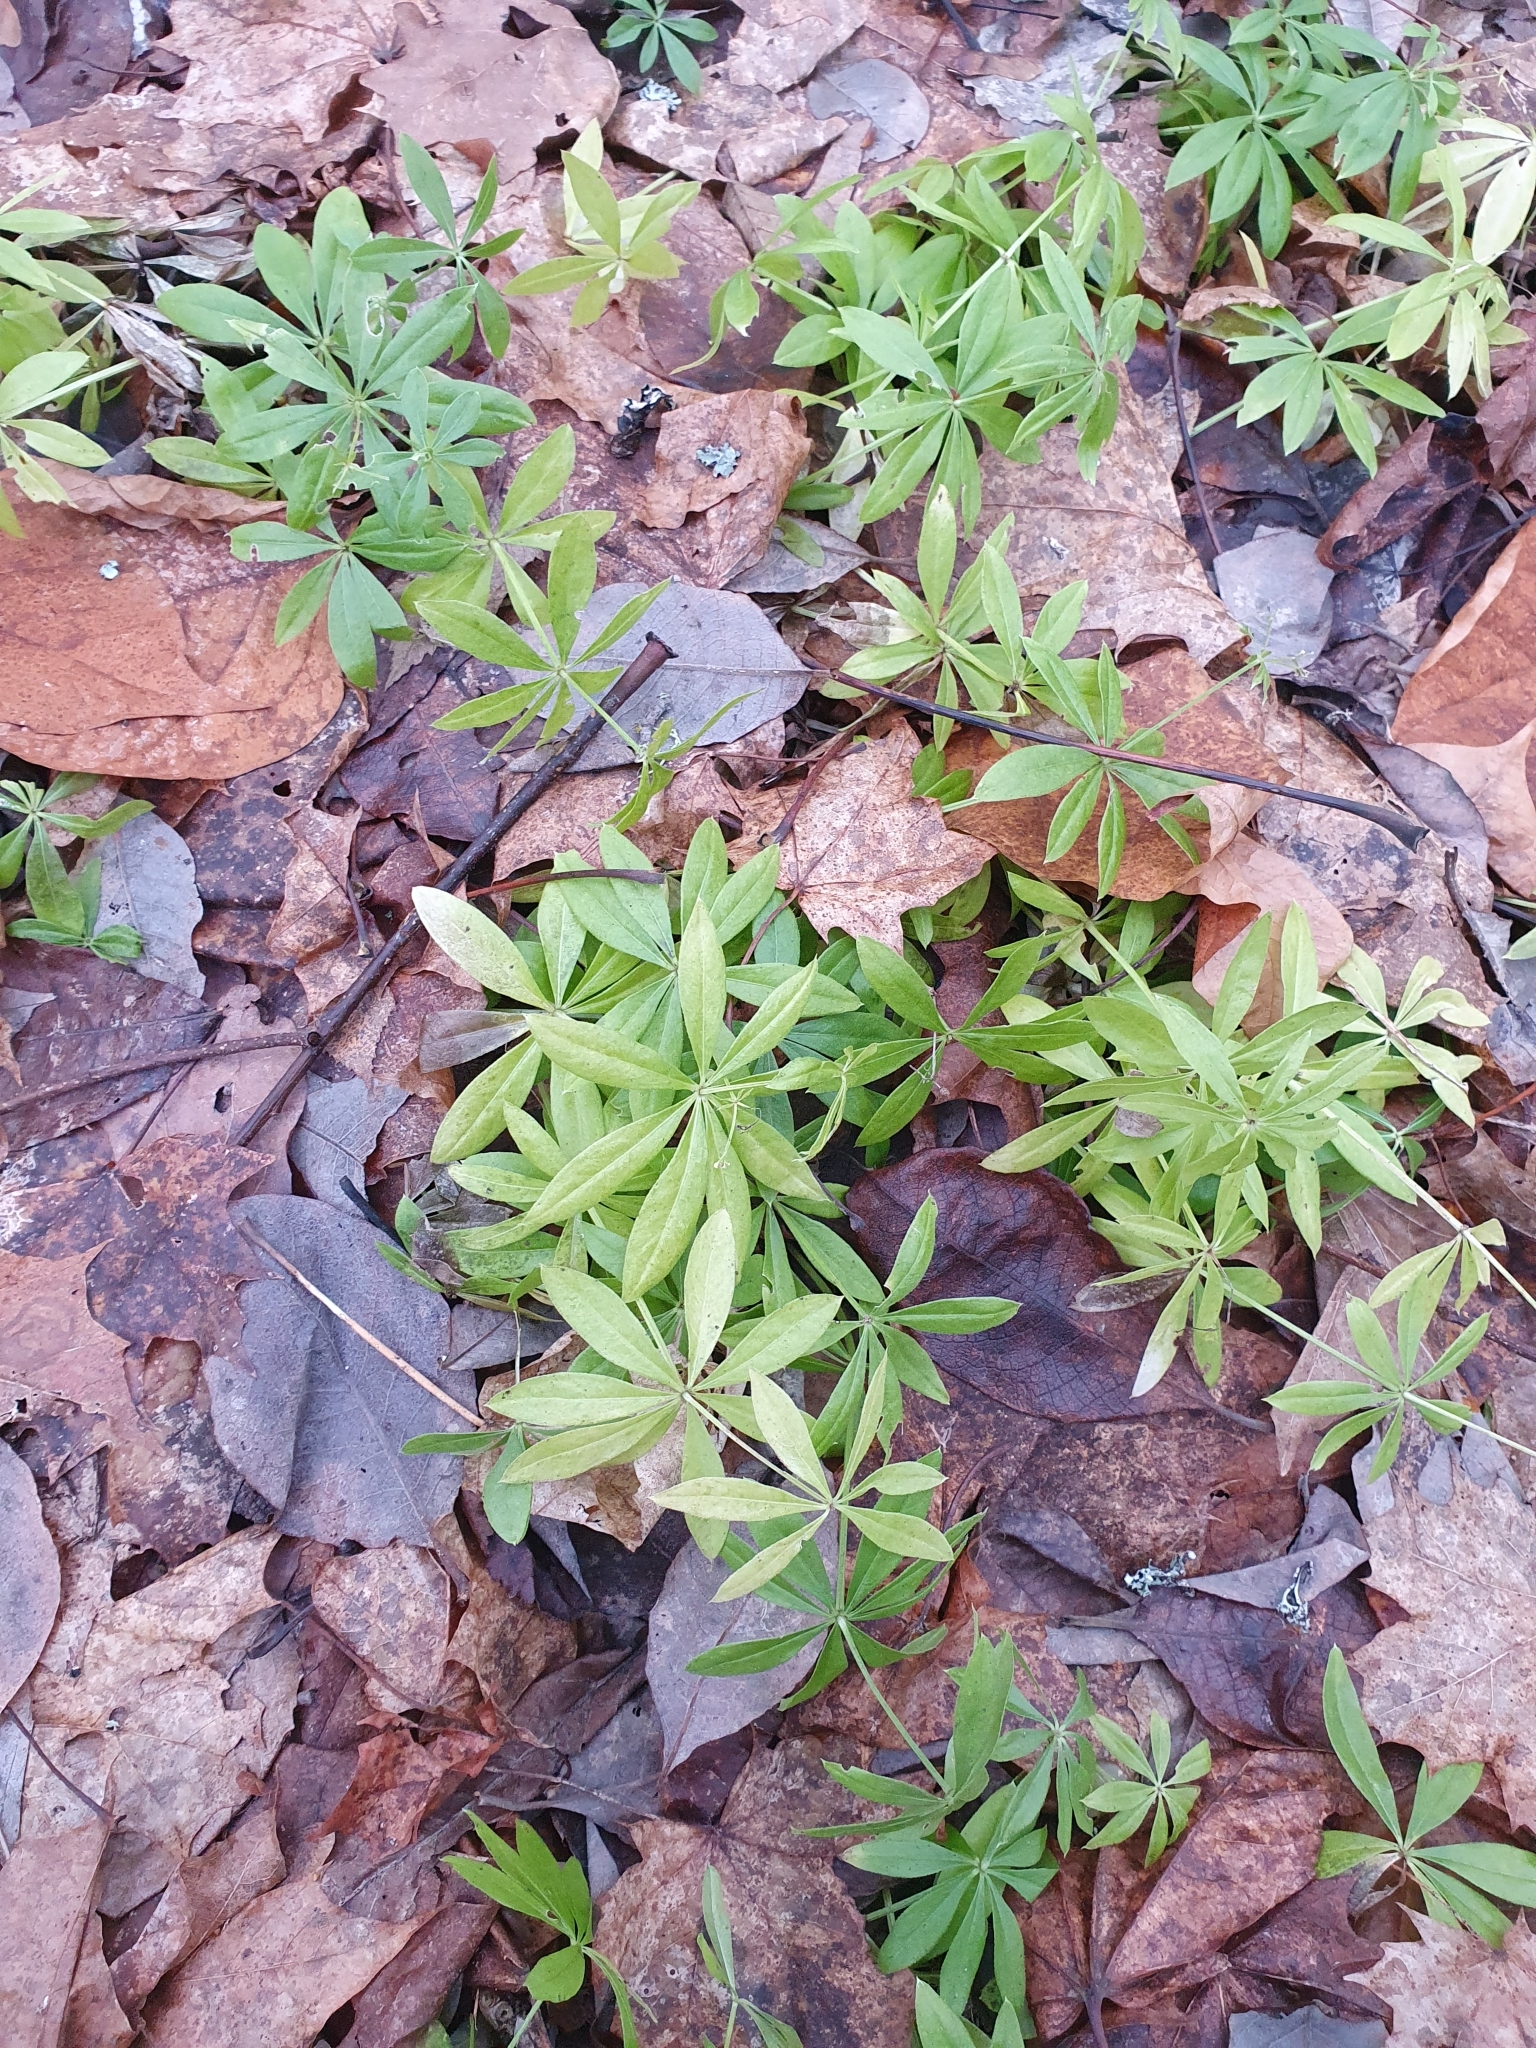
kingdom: Plantae
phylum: Tracheophyta
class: Magnoliopsida
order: Gentianales
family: Rubiaceae
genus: Galium
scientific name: Galium odoratum
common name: Sweet woodruff
